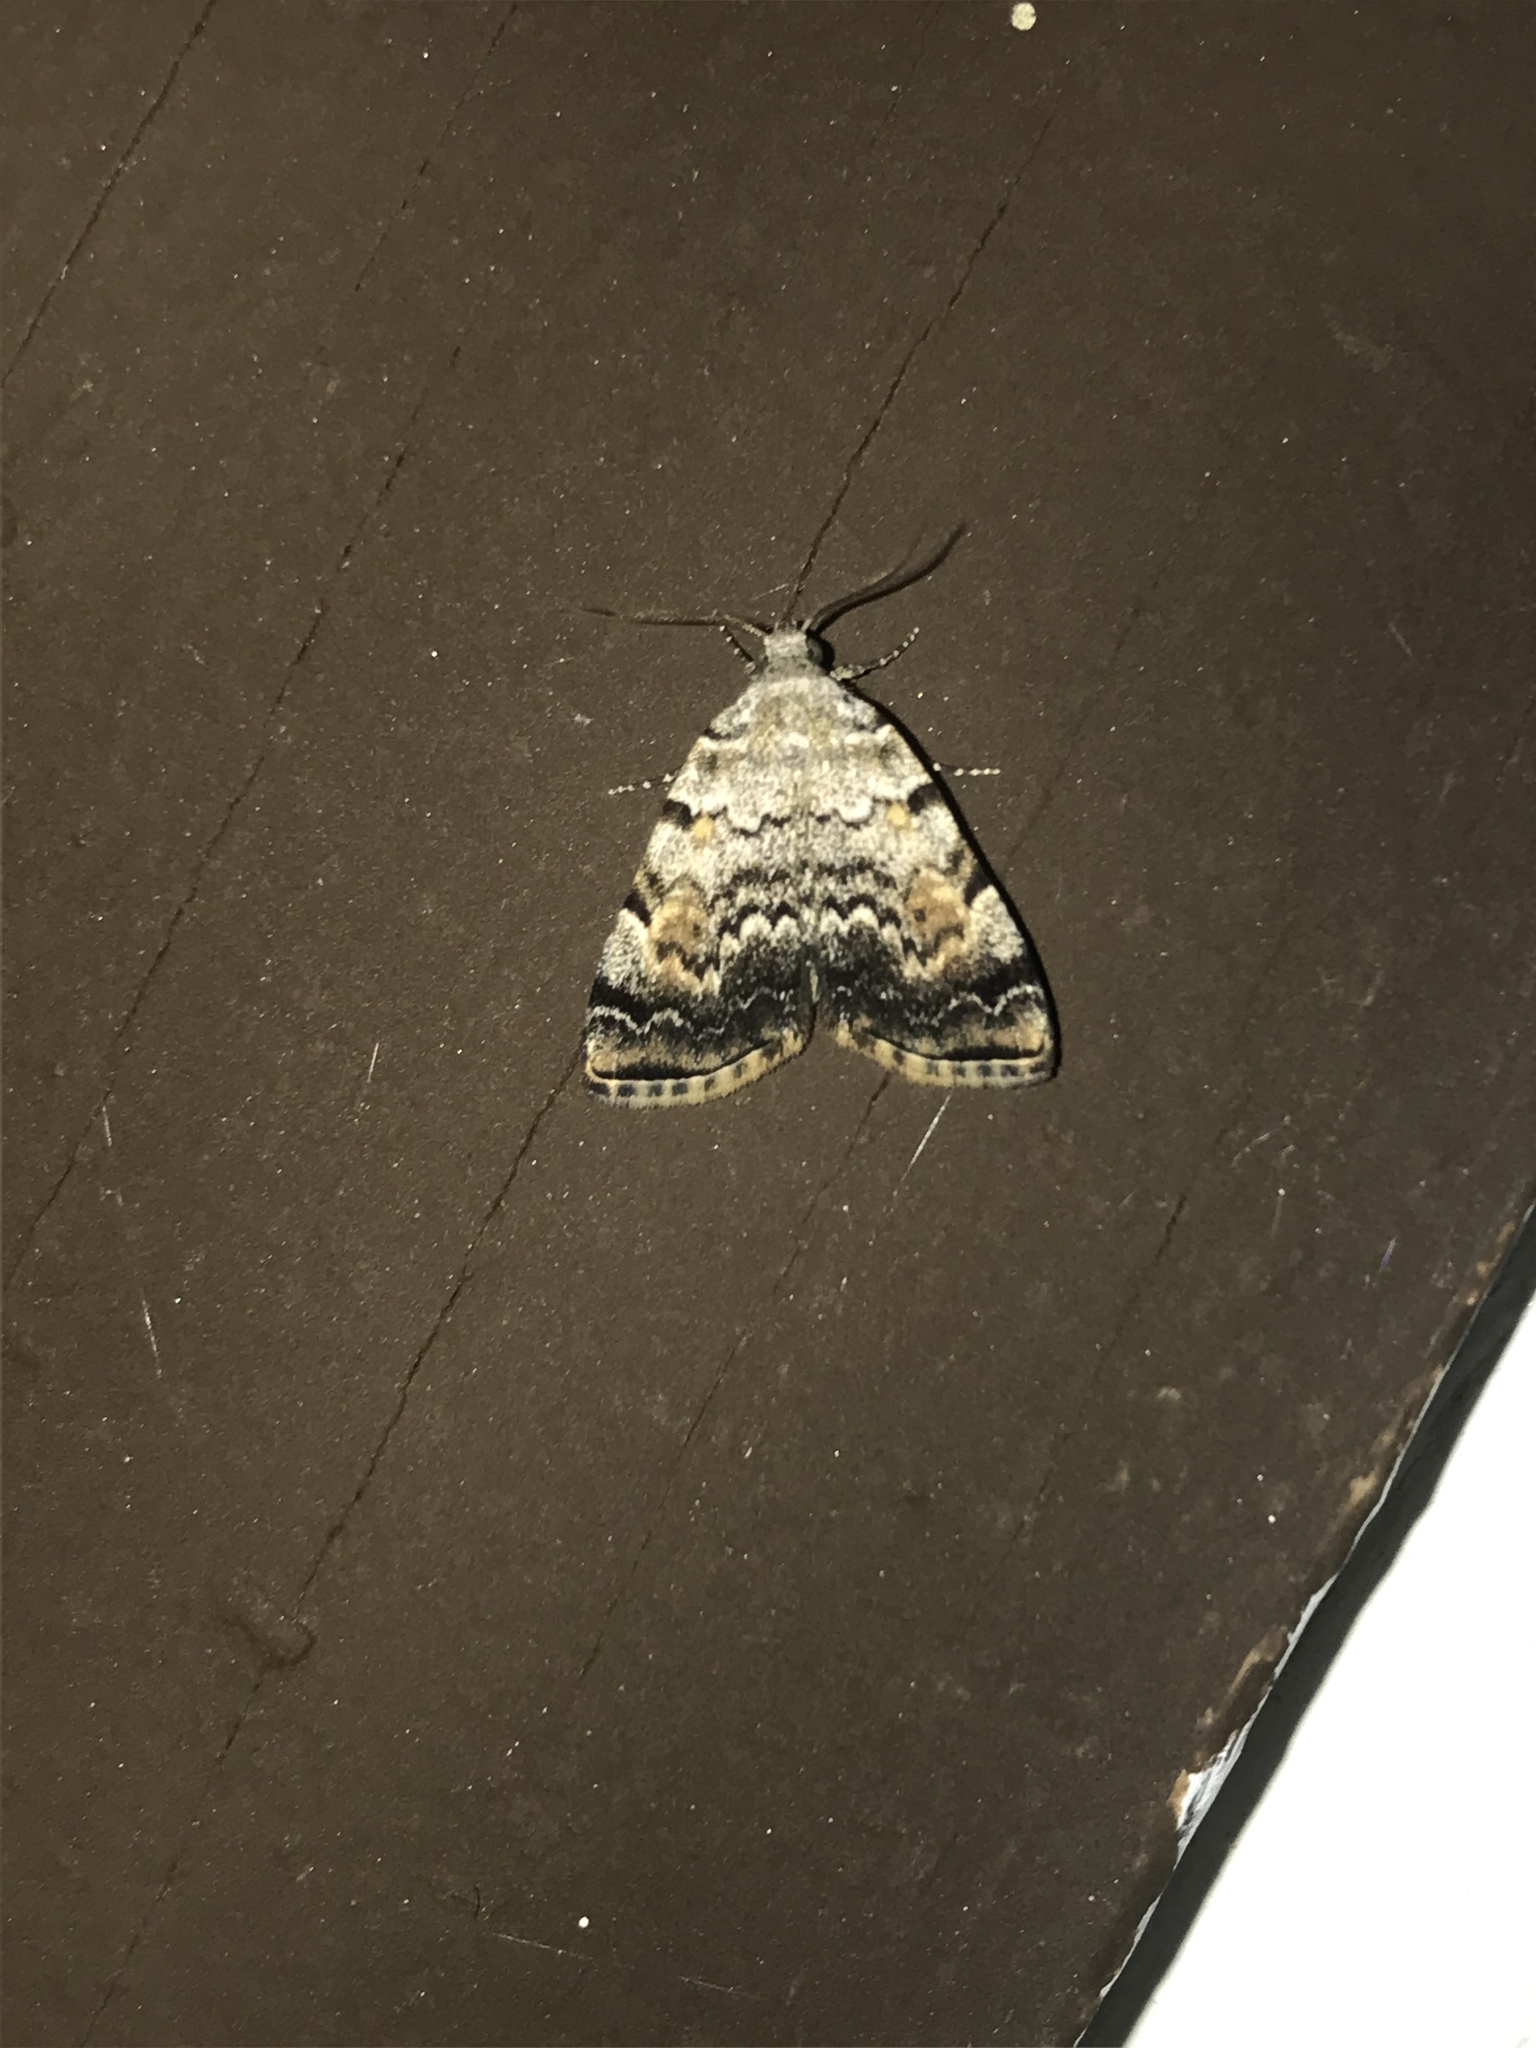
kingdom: Animalia
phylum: Arthropoda
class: Insecta
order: Lepidoptera
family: Erebidae
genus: Idia
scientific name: Idia americalis
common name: American idia moth
